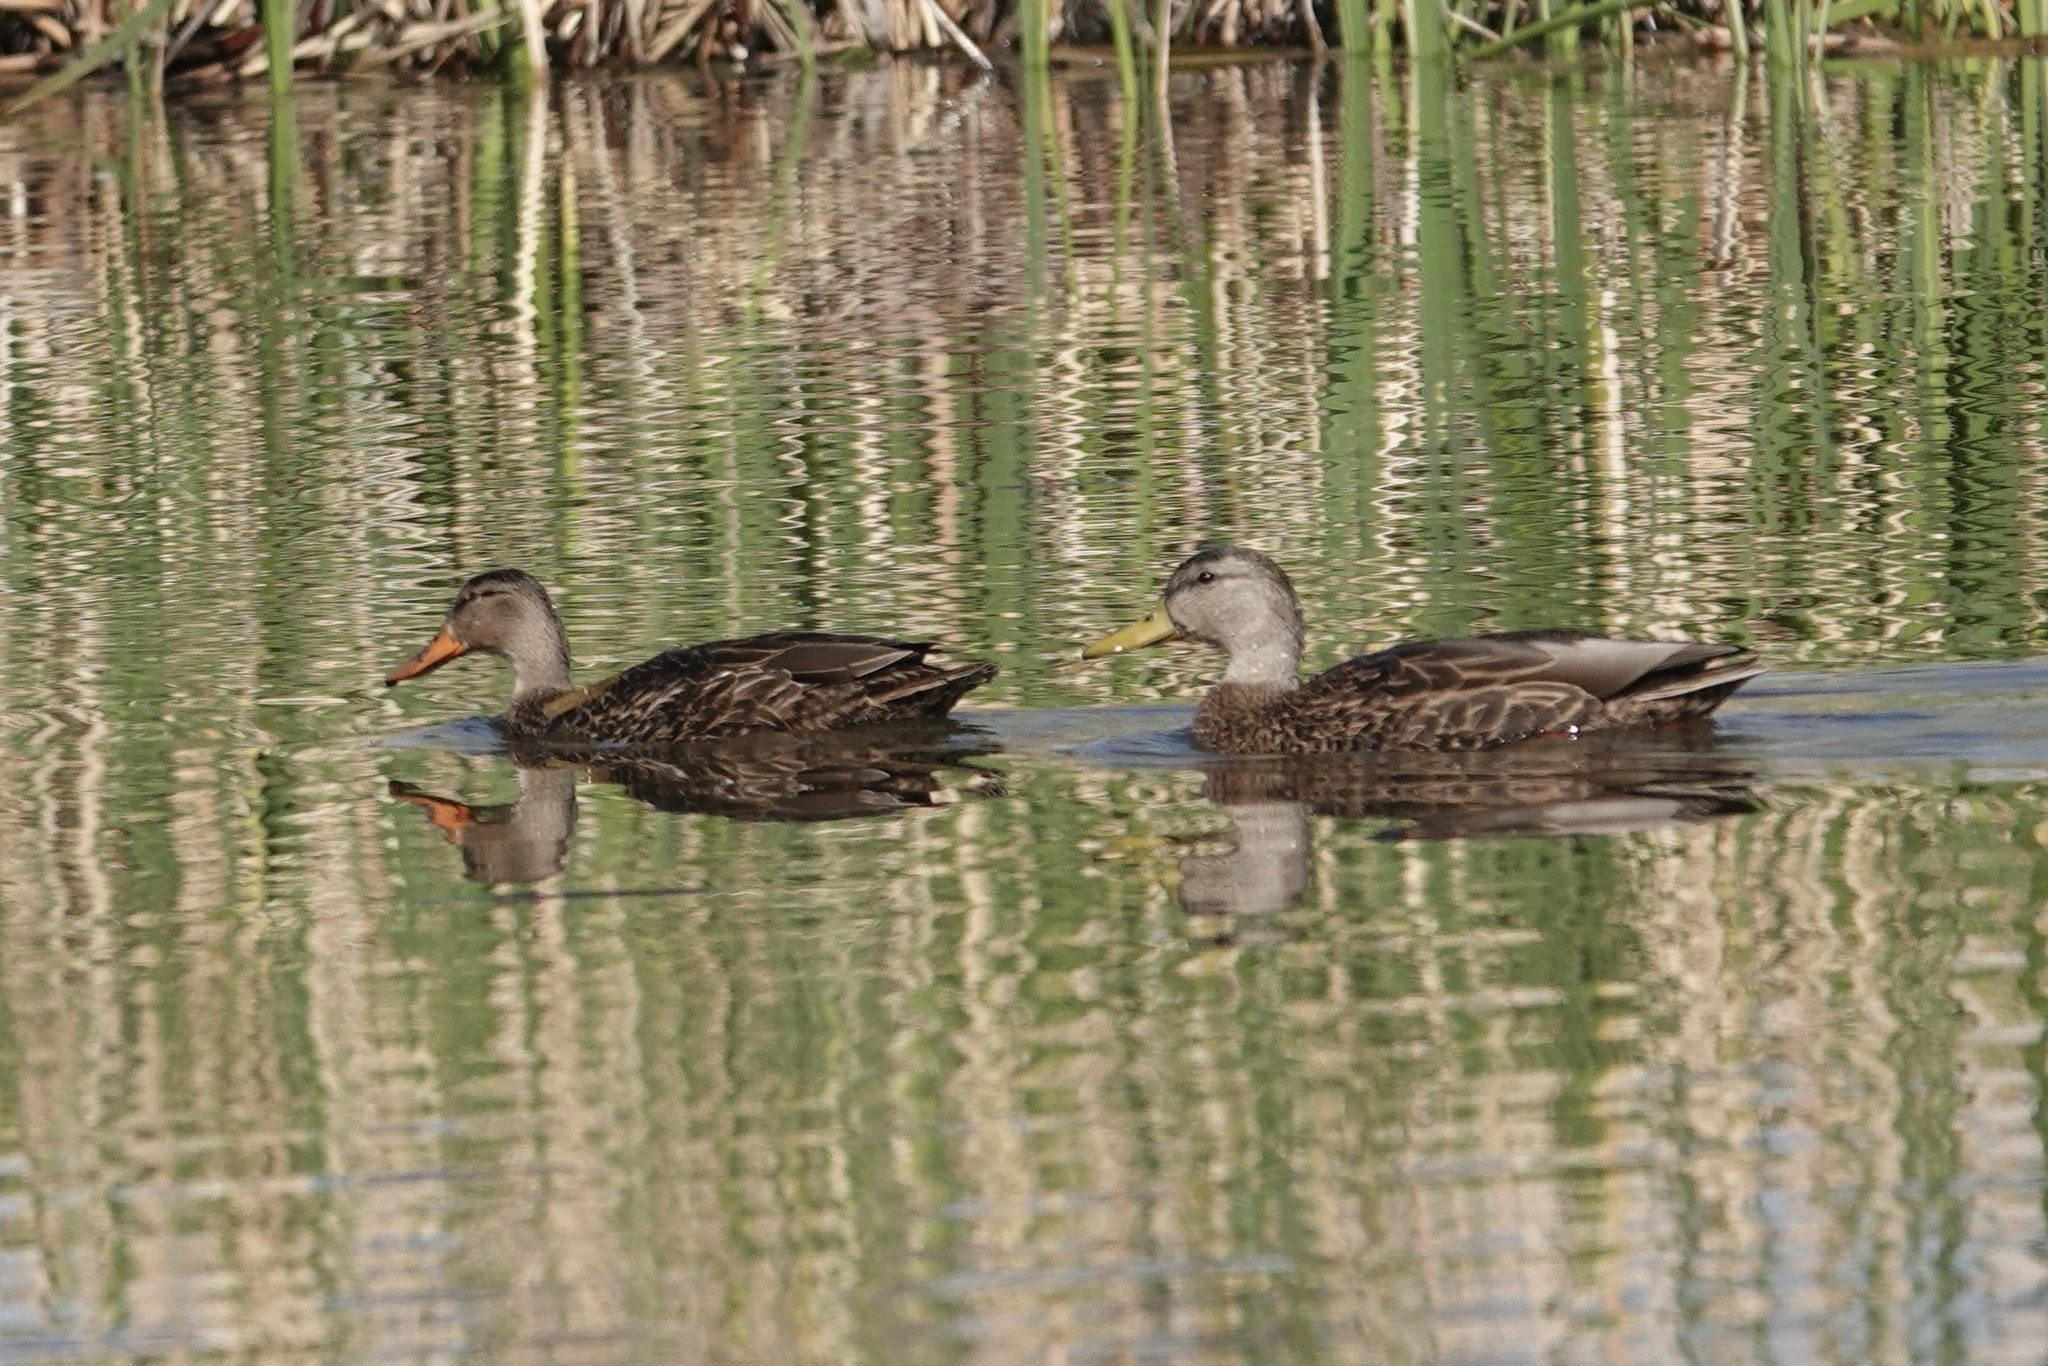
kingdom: Animalia
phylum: Chordata
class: Aves
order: Anseriformes
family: Anatidae
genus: Anas
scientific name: Anas diazi
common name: Mexican duck
